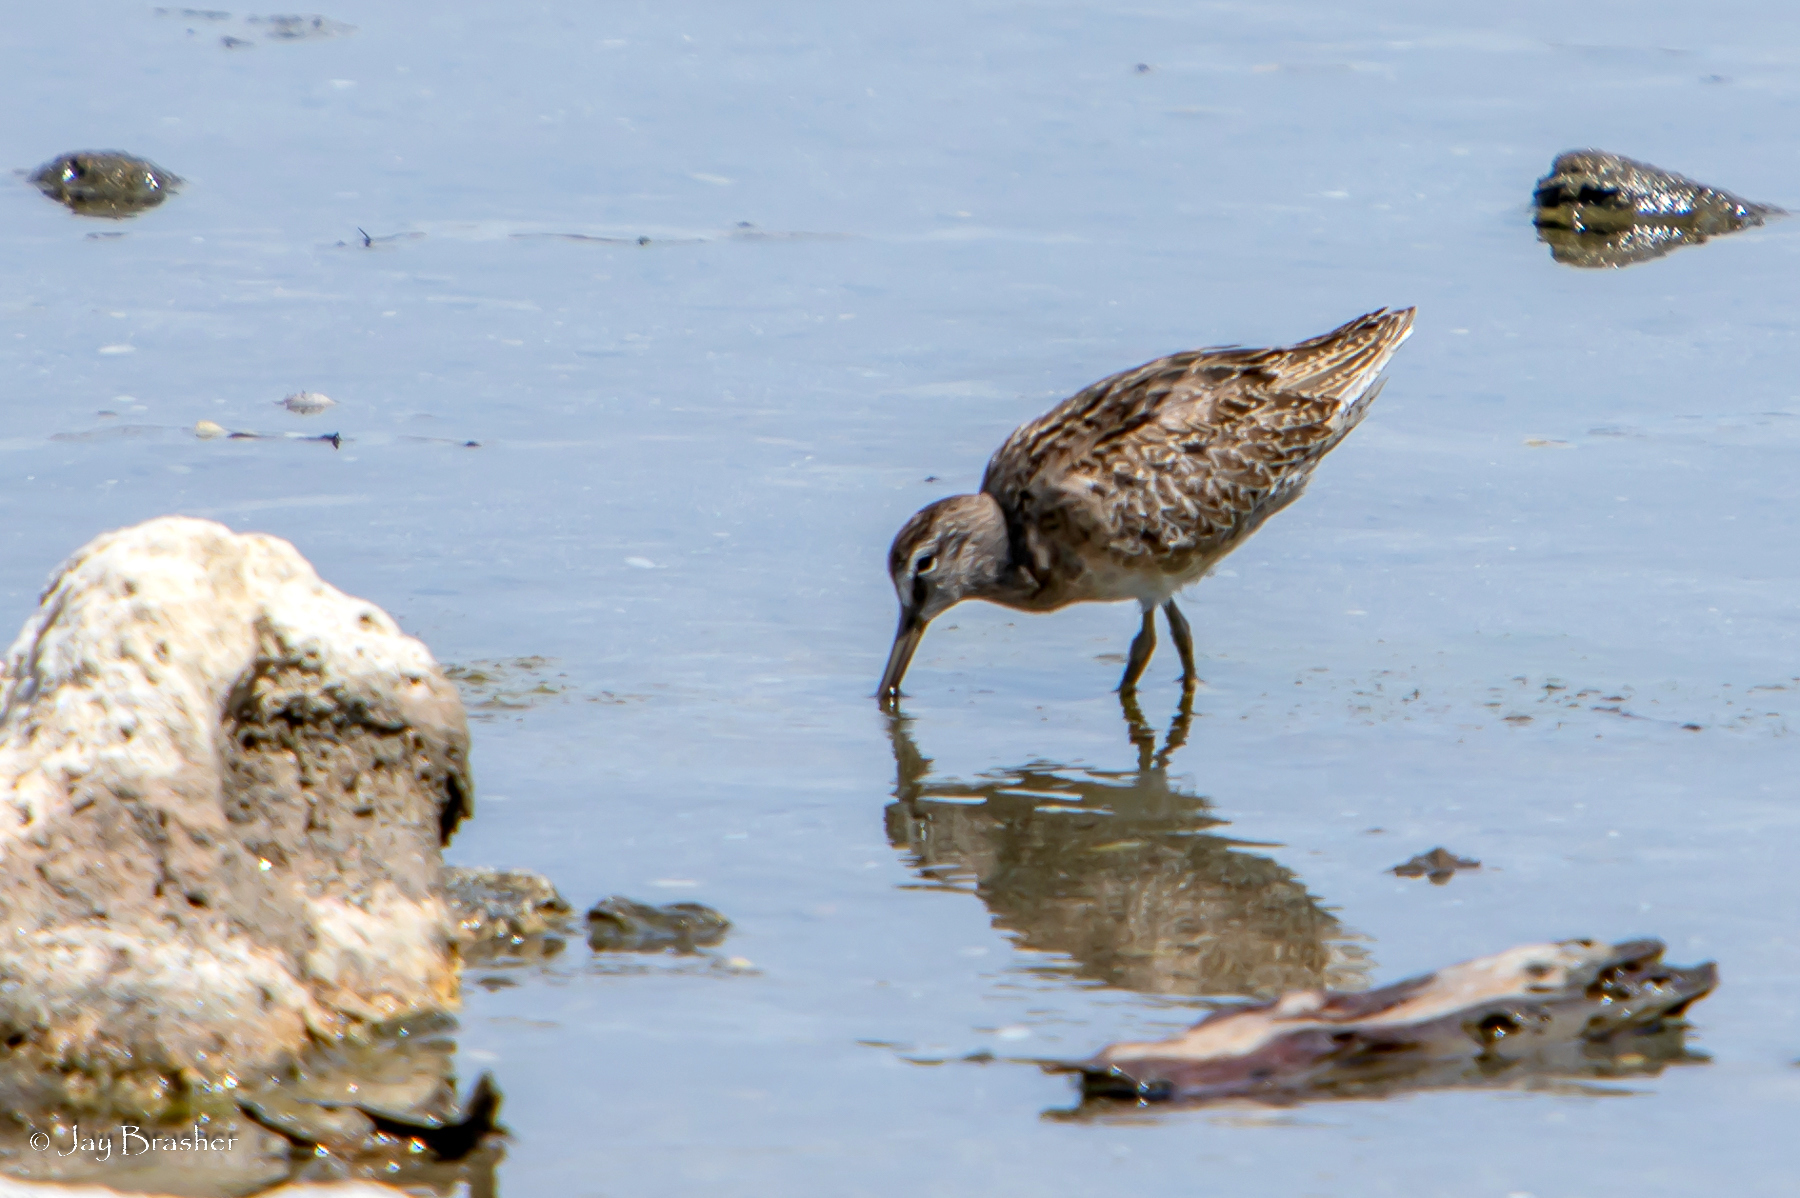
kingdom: Animalia
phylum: Chordata
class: Aves
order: Charadriiformes
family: Scolopacidae
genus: Limnodromus
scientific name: Limnodromus griseus
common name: Short-billed dowitcher
